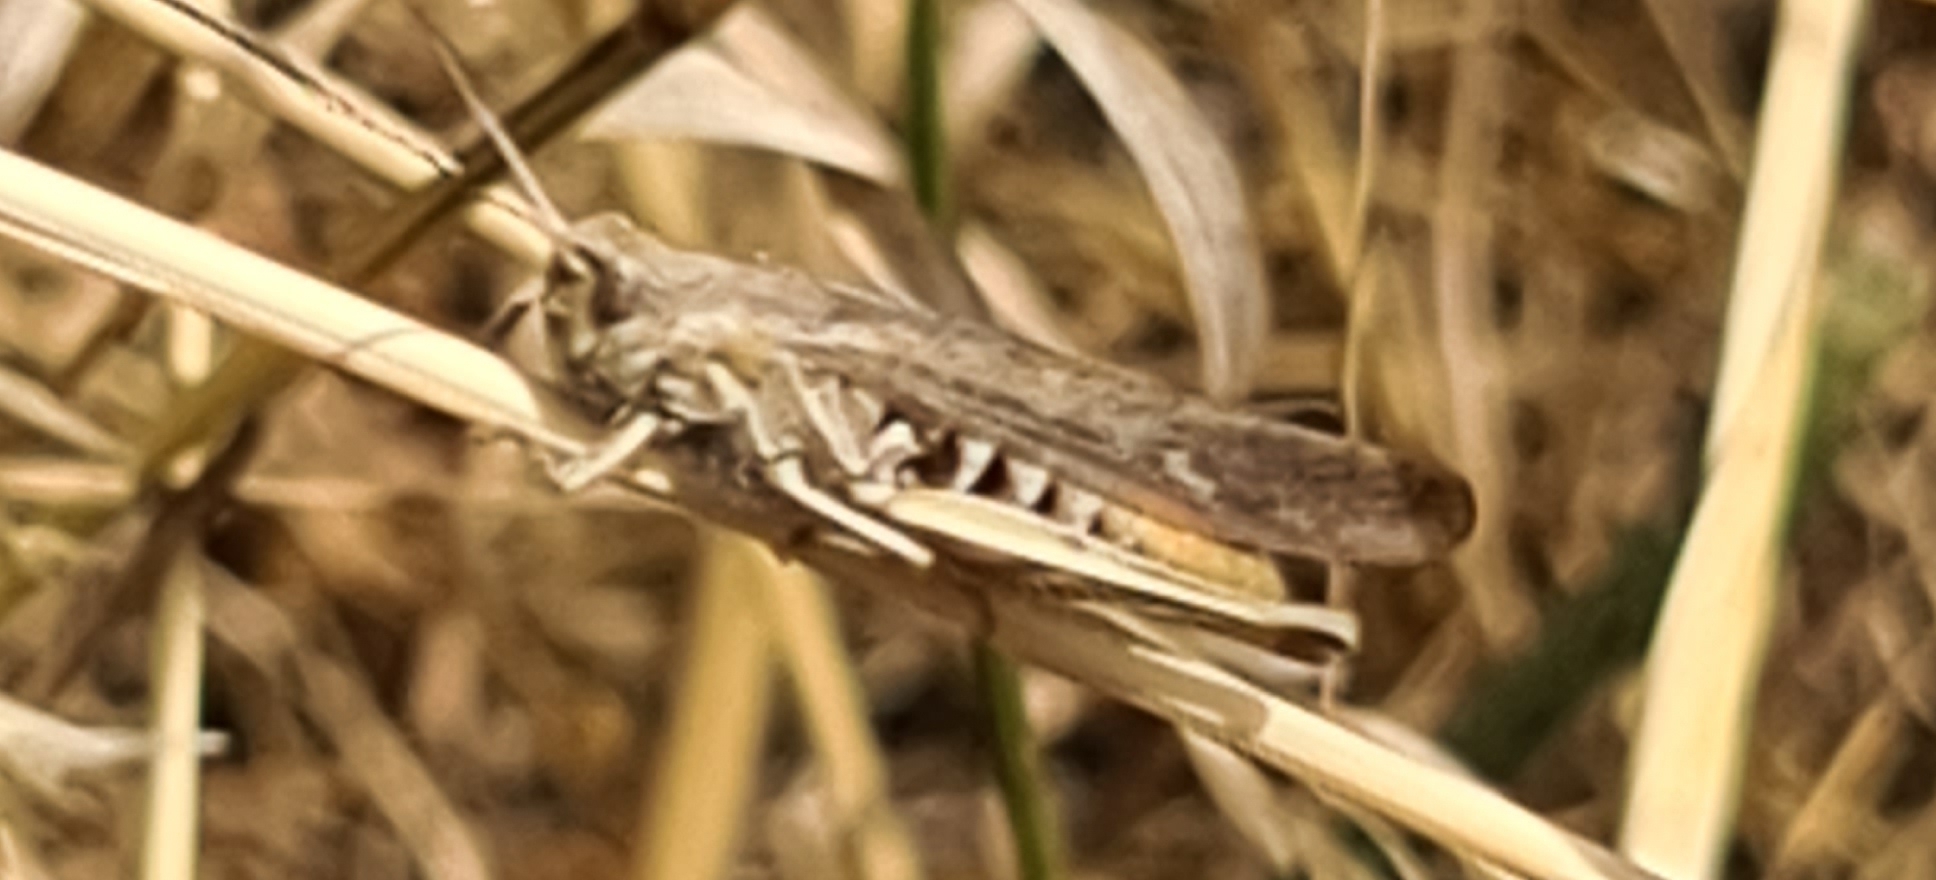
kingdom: Animalia
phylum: Arthropoda
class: Insecta
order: Orthoptera
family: Acrididae
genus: Chorthippus
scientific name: Chorthippus brunneus
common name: Field grasshopper
